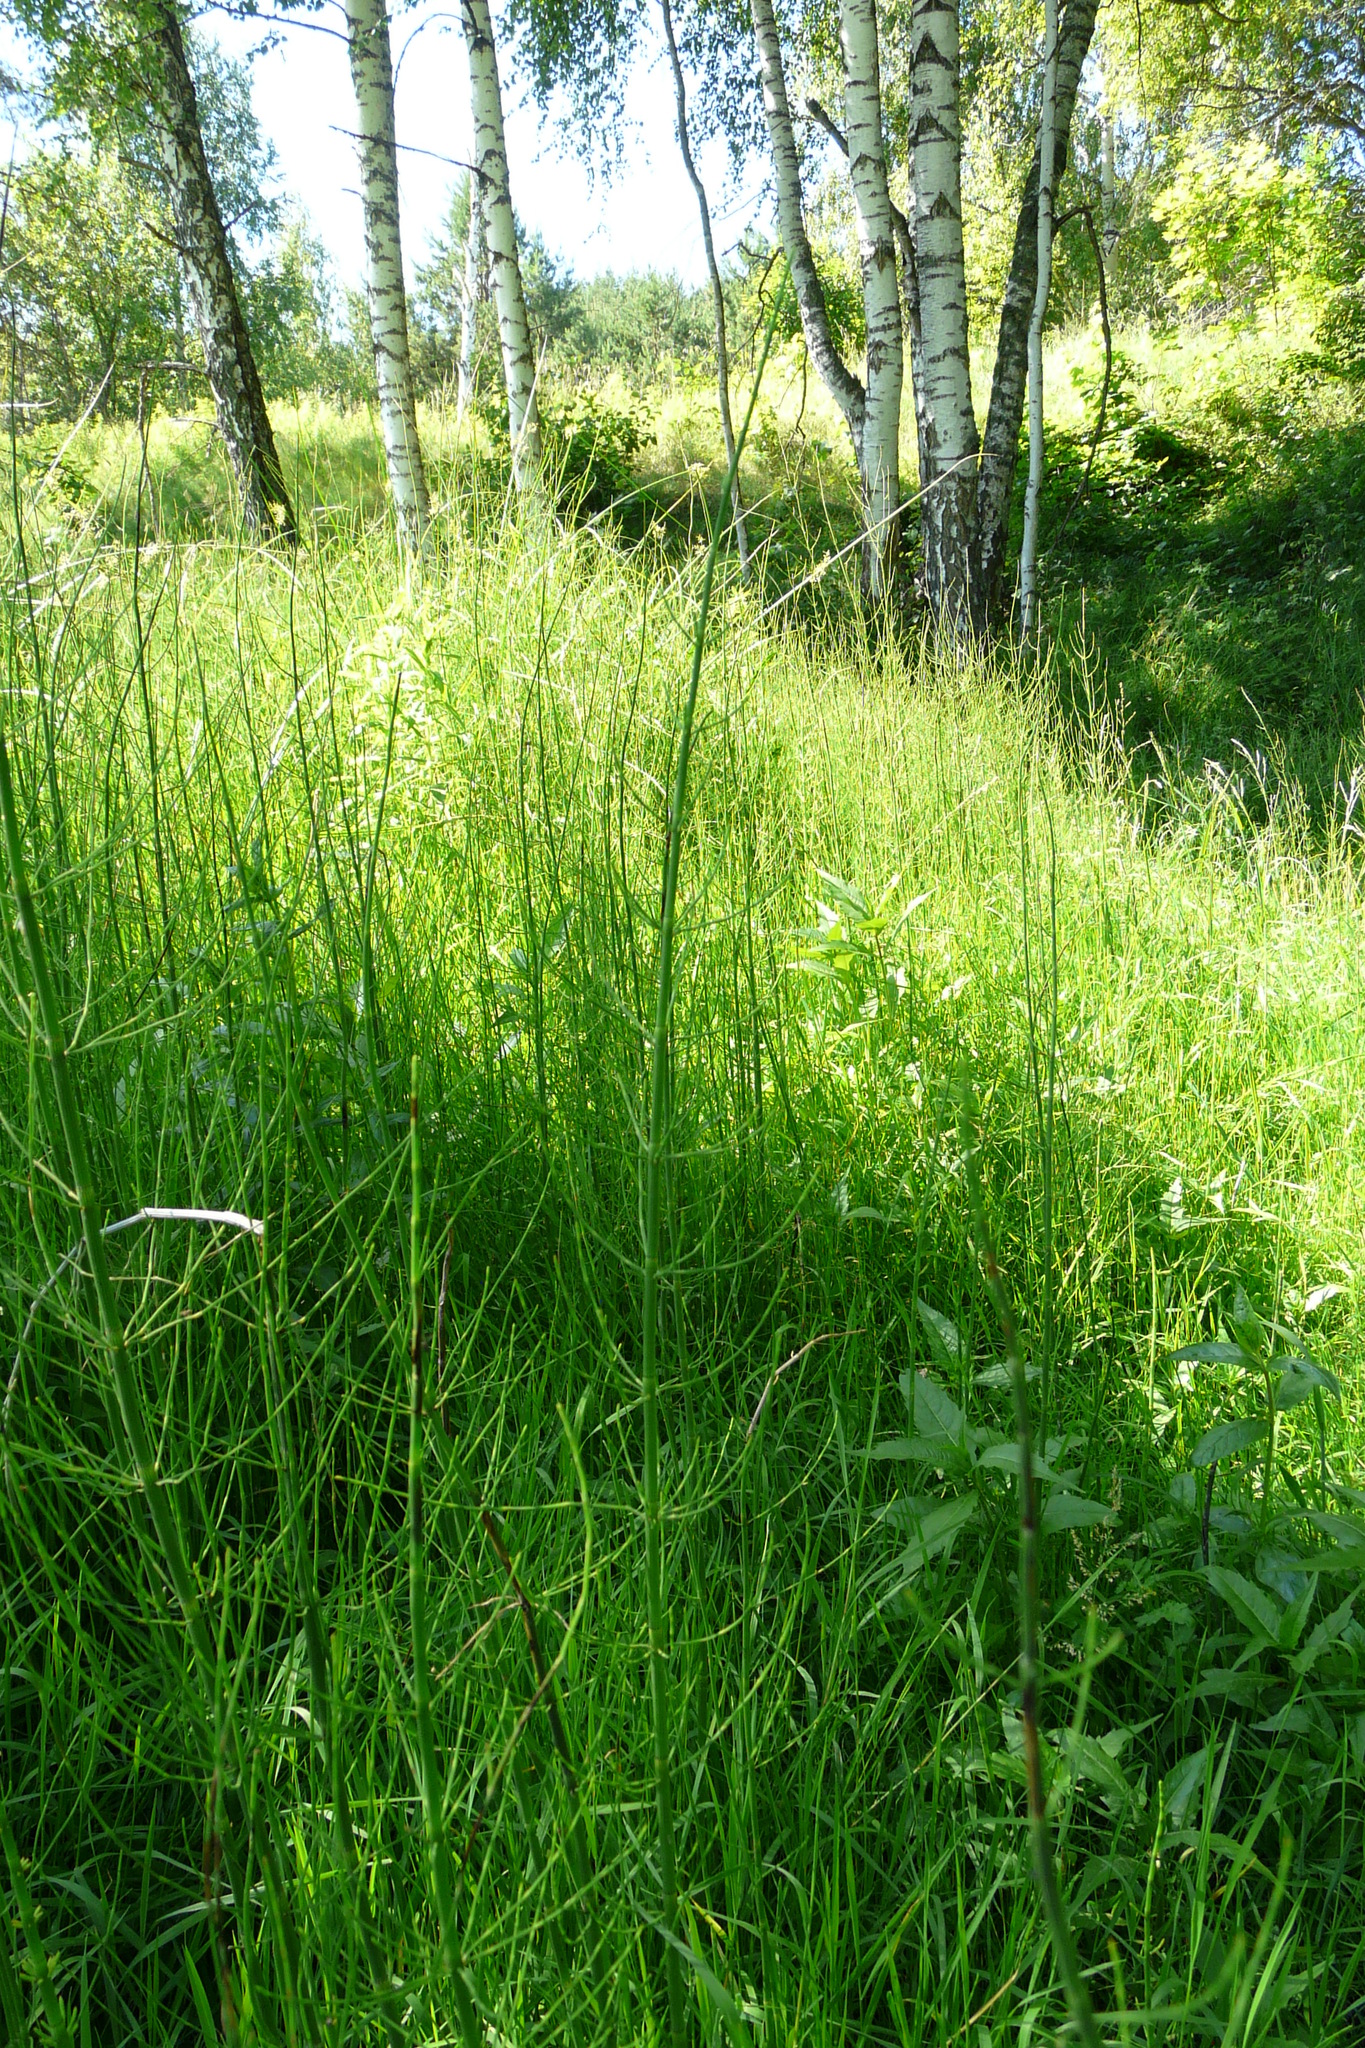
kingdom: Plantae
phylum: Tracheophyta
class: Polypodiopsida
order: Equisetales
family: Equisetaceae
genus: Equisetum
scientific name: Equisetum fluviatile
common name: Water horsetail
